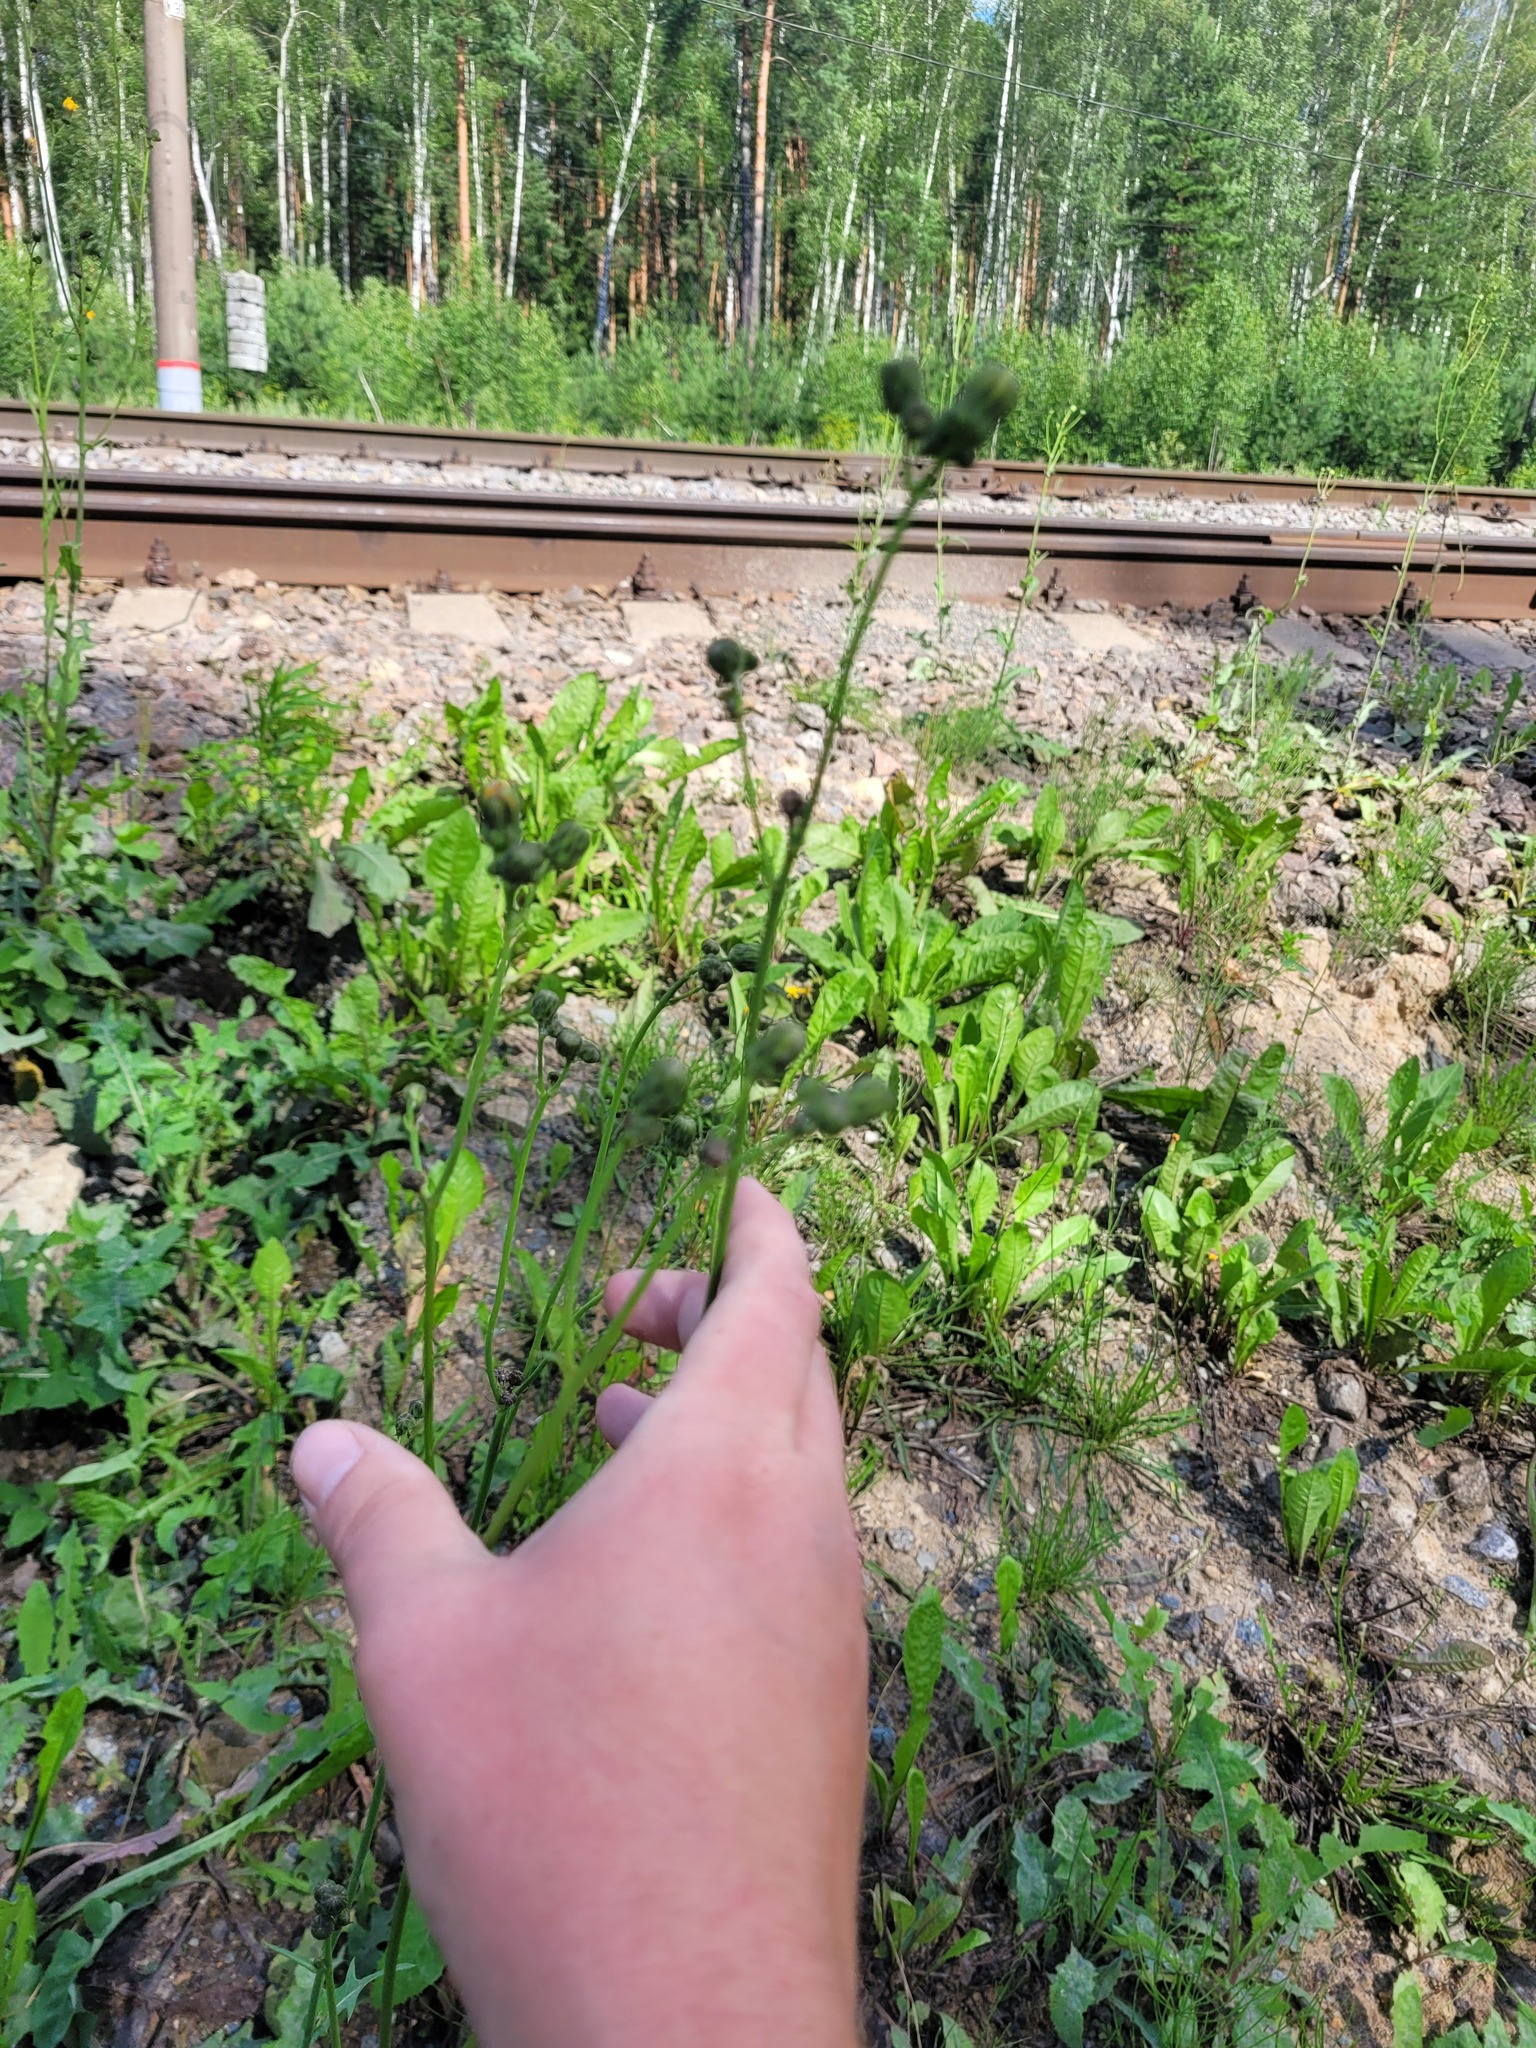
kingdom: Plantae
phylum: Tracheophyta
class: Magnoliopsida
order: Asterales
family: Asteraceae
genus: Sonchus
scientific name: Sonchus arvensis
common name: Perennial sow-thistle
